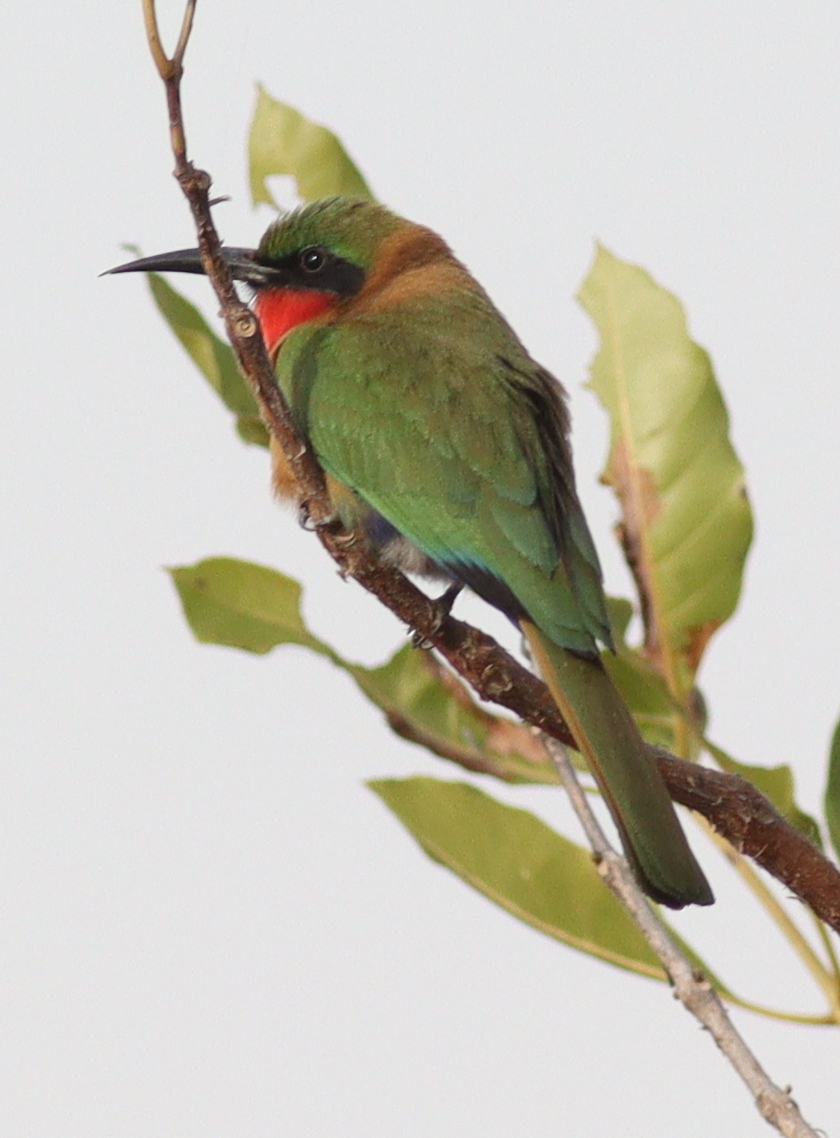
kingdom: Animalia
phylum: Chordata
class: Aves
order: Coraciiformes
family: Meropidae
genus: Merops
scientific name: Merops bulocki
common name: Red-throated bee-eater
